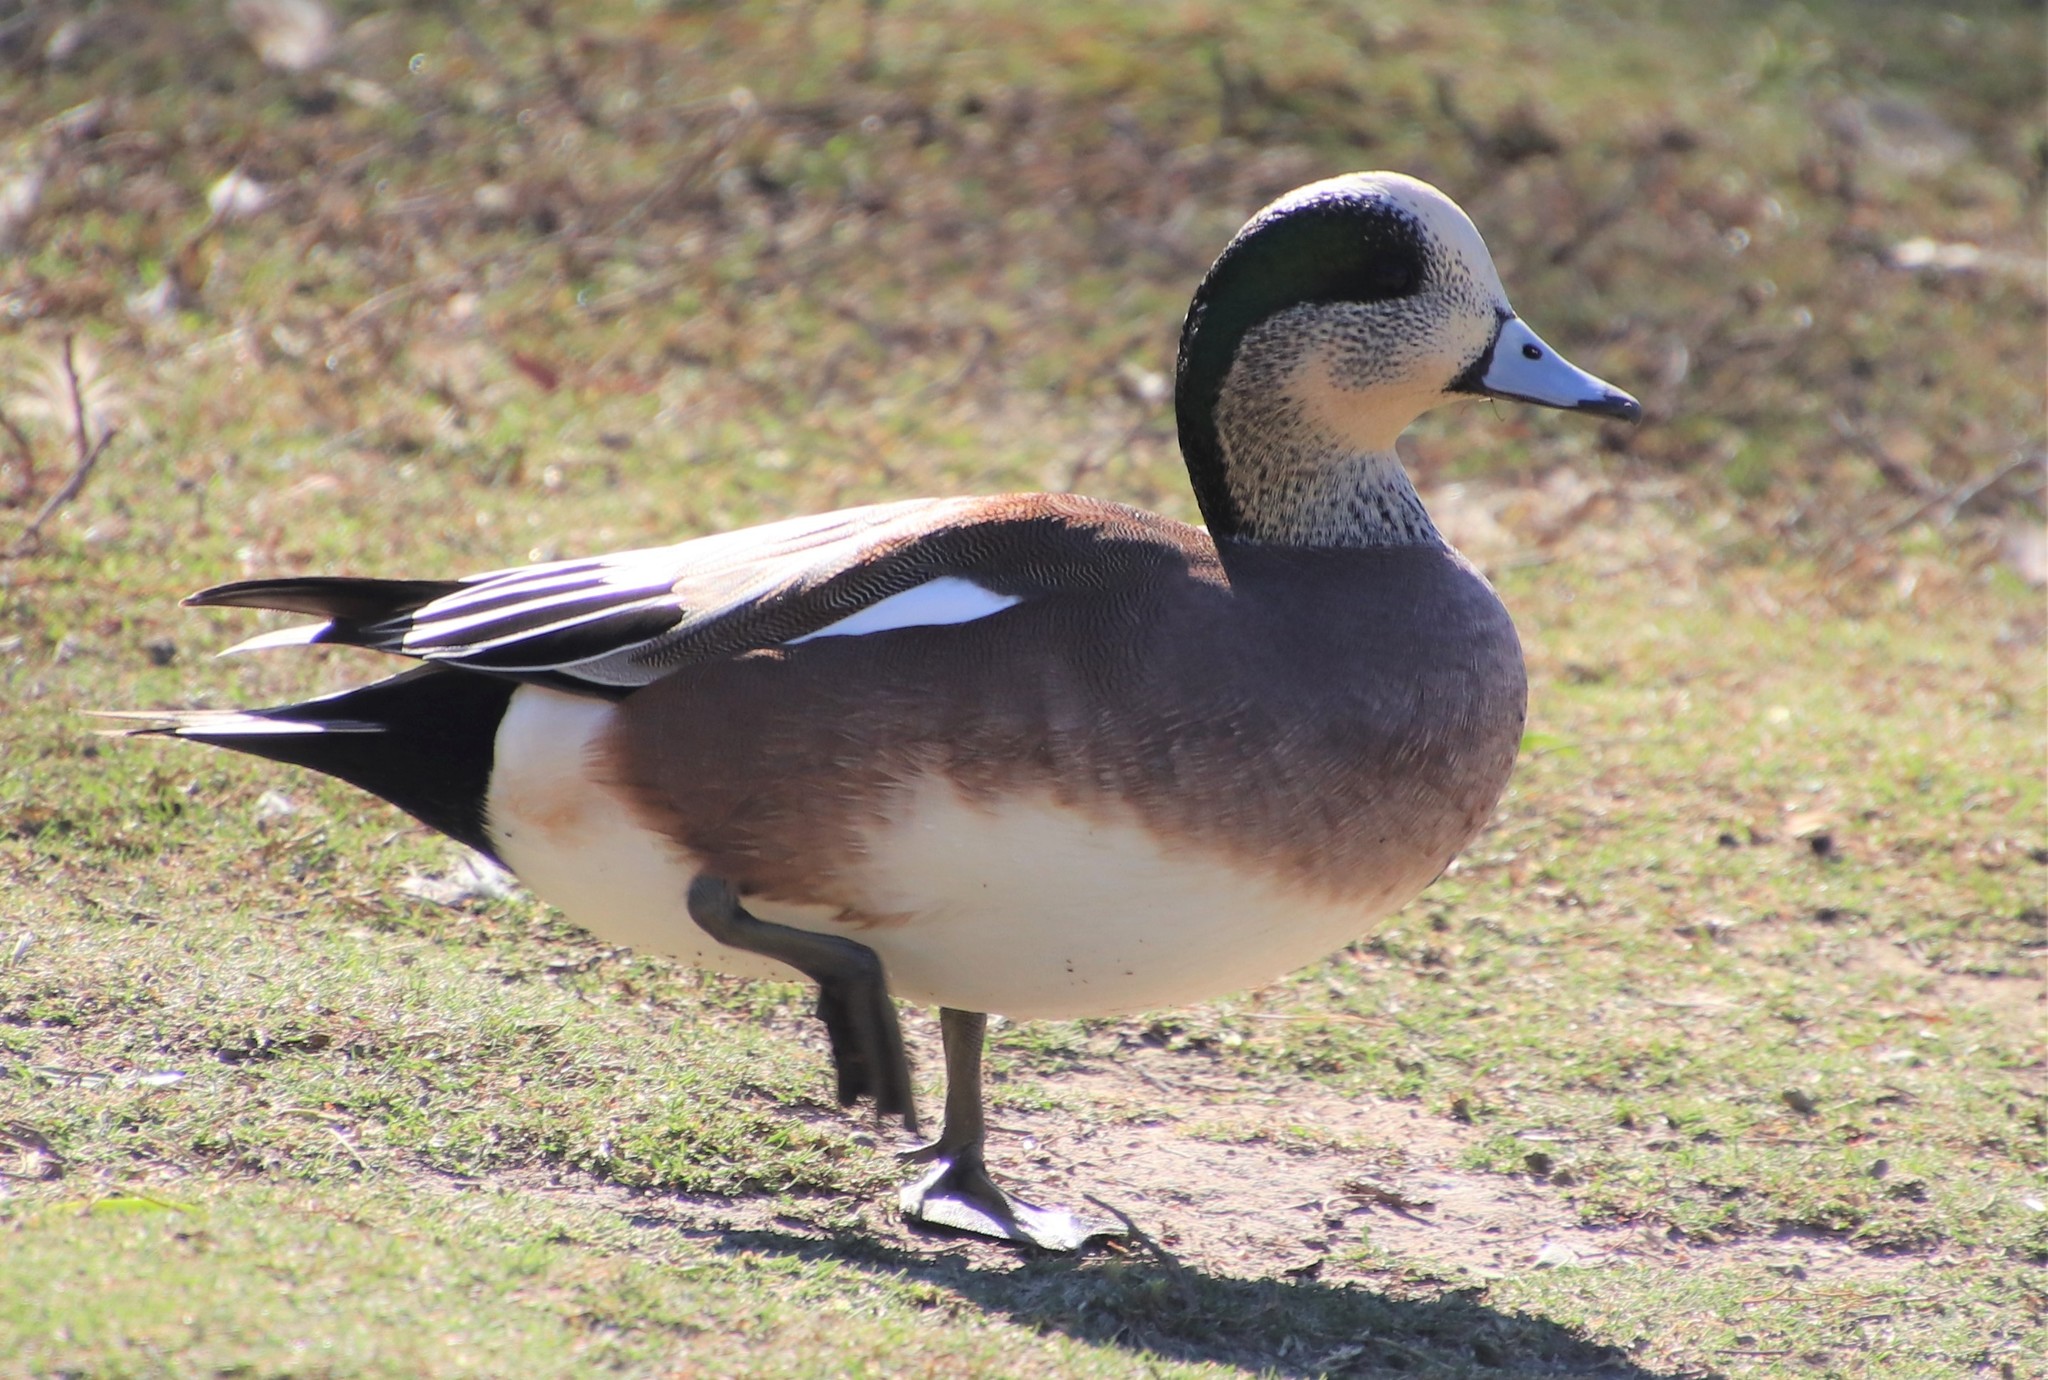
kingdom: Animalia
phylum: Chordata
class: Aves
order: Anseriformes
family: Anatidae
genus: Mareca
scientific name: Mareca americana
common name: American wigeon
